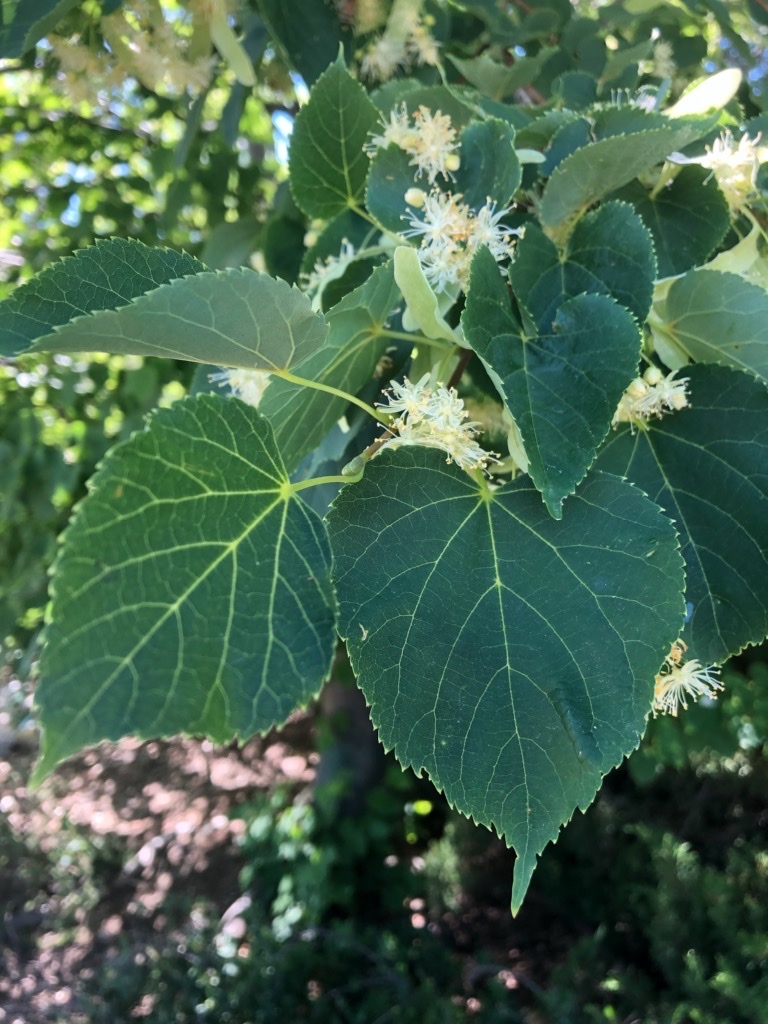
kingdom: Plantae
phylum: Tracheophyta
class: Magnoliopsida
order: Malvales
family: Malvaceae
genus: Tilia
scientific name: Tilia americana
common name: Basswood
